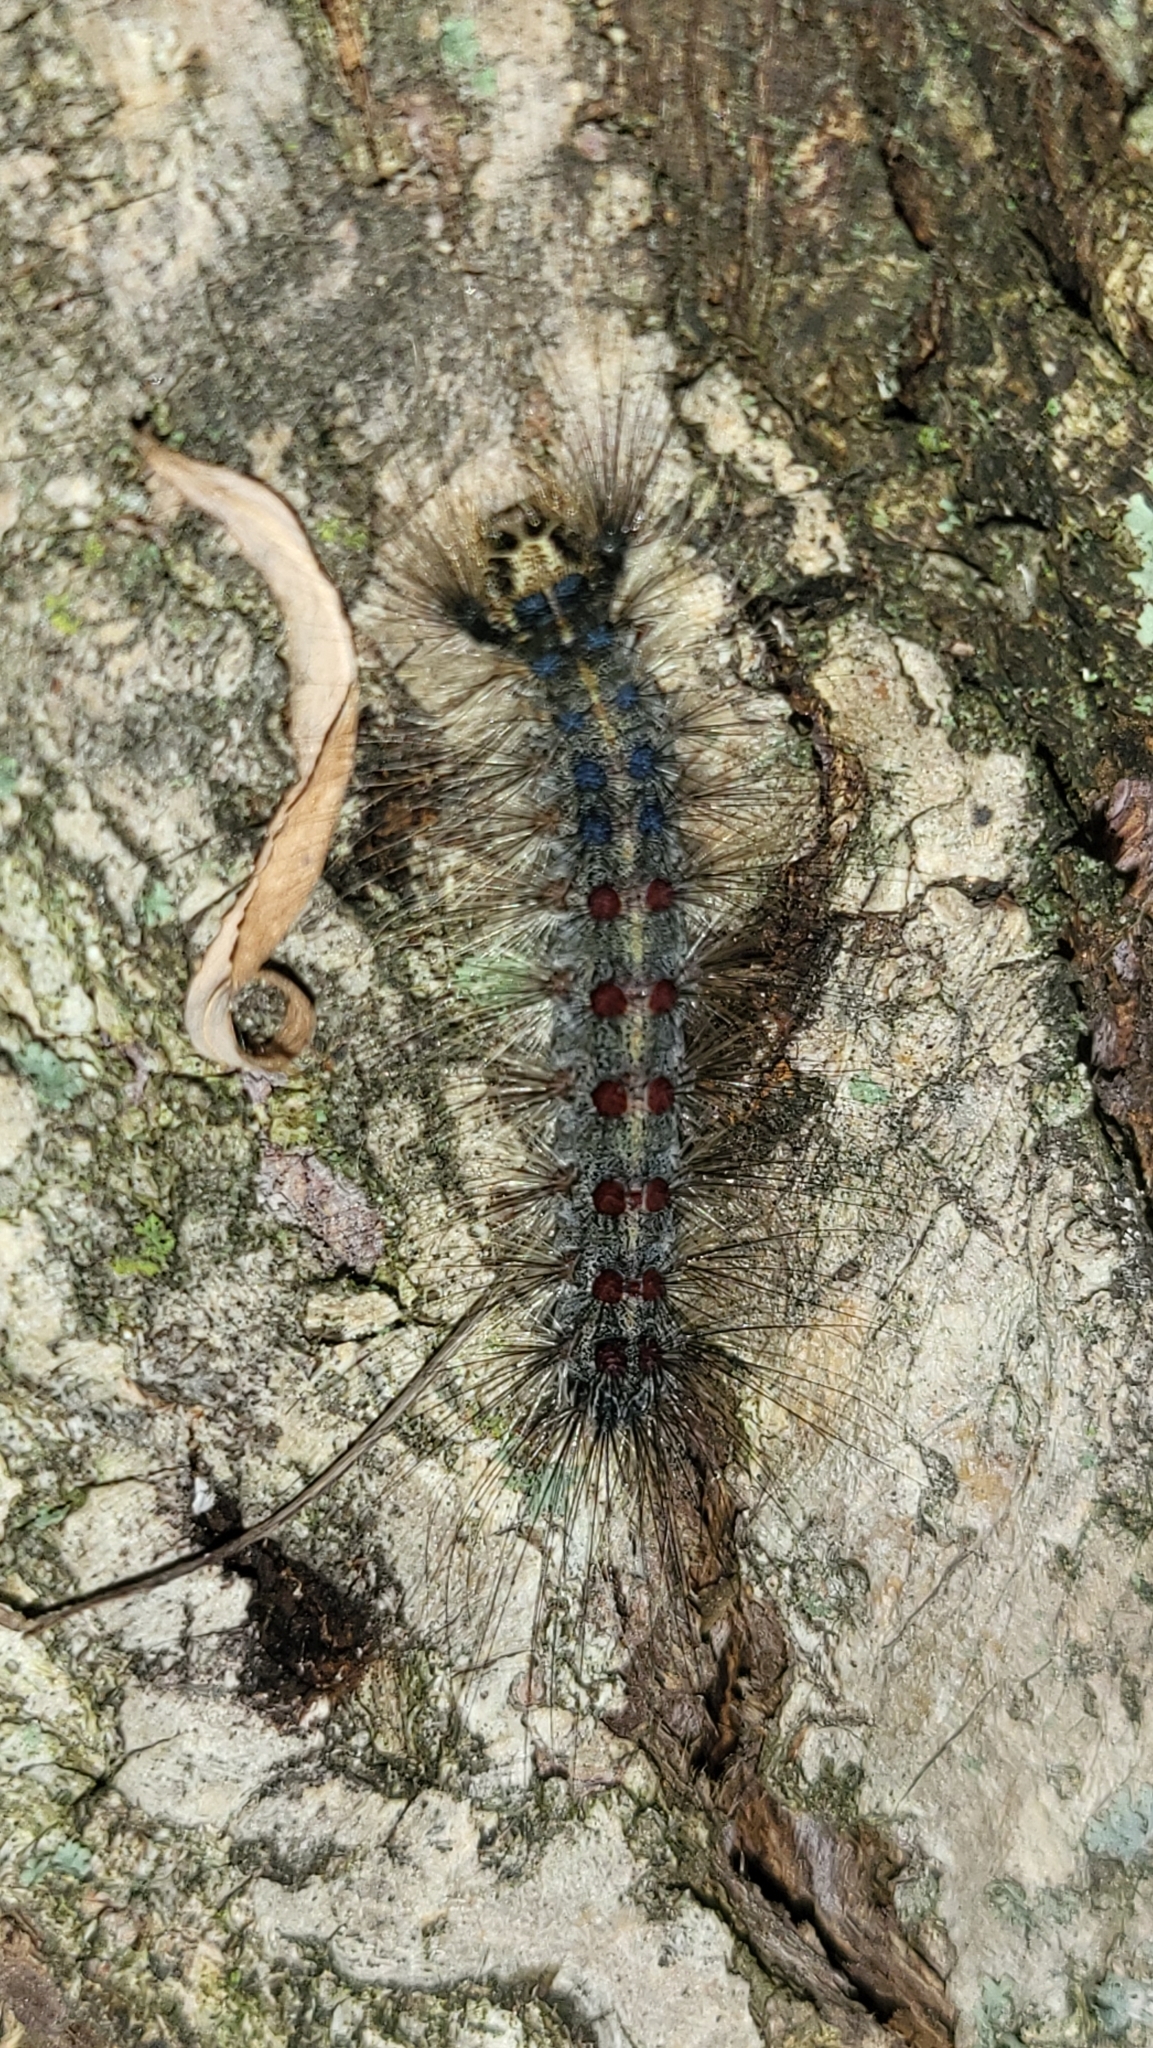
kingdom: Animalia
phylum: Arthropoda
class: Insecta
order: Lepidoptera
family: Erebidae
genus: Lymantria
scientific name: Lymantria dispar
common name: Gypsy moth
